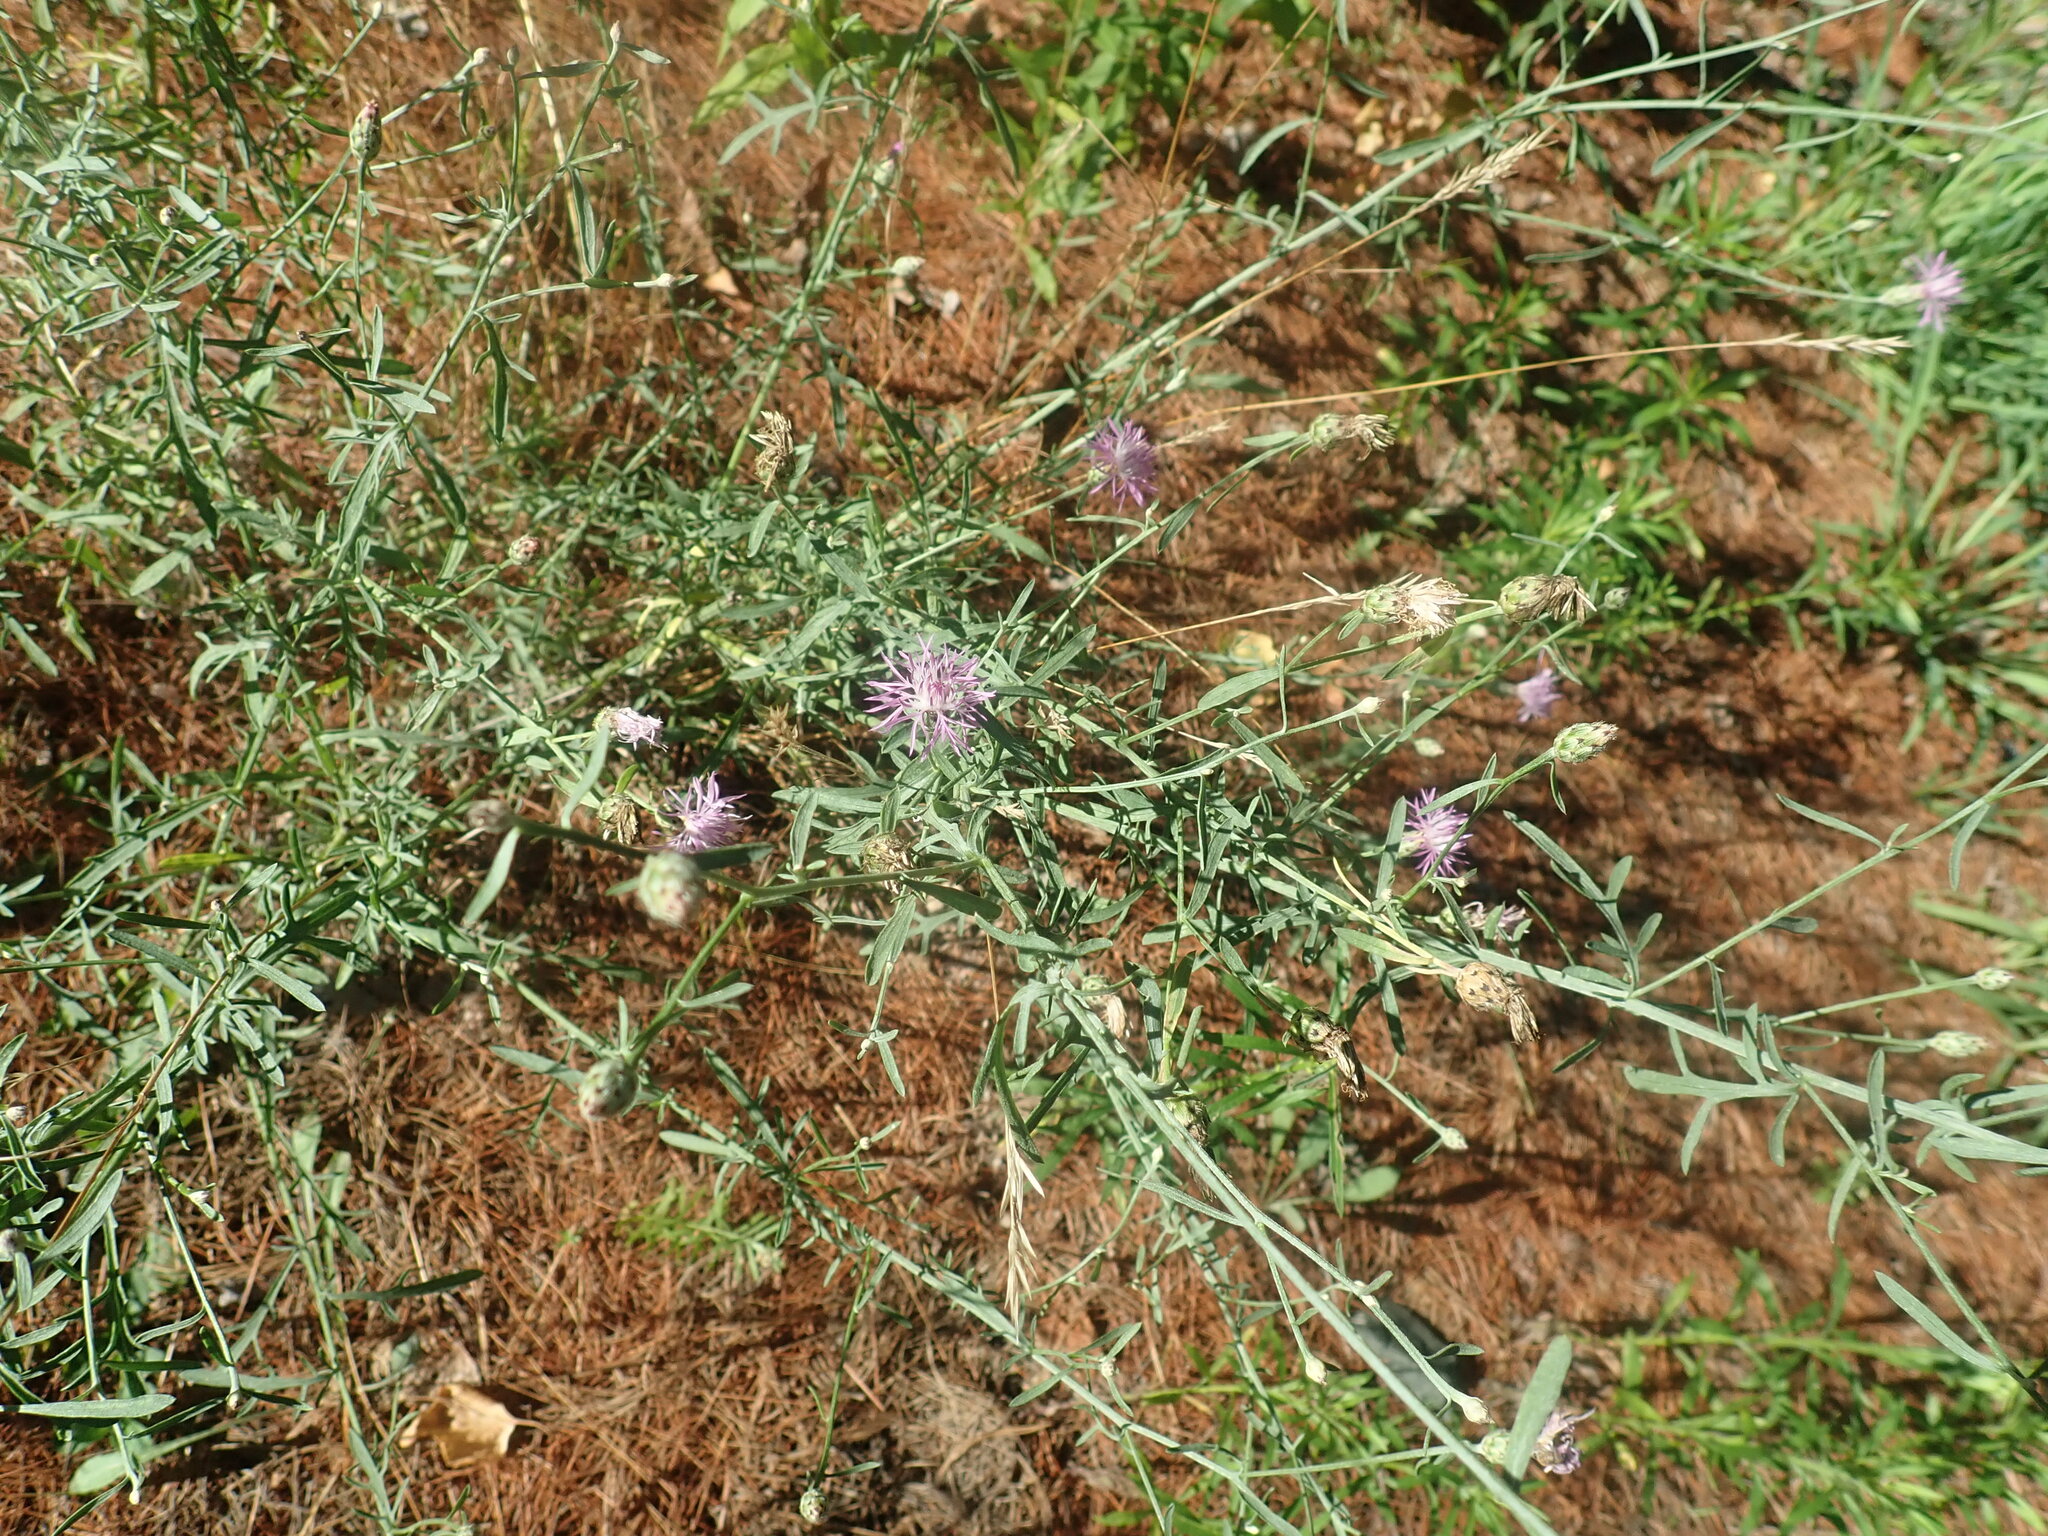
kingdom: Plantae
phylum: Tracheophyta
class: Magnoliopsida
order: Asterales
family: Asteraceae
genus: Centaurea
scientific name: Centaurea stoebe
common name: Spotted knapweed
